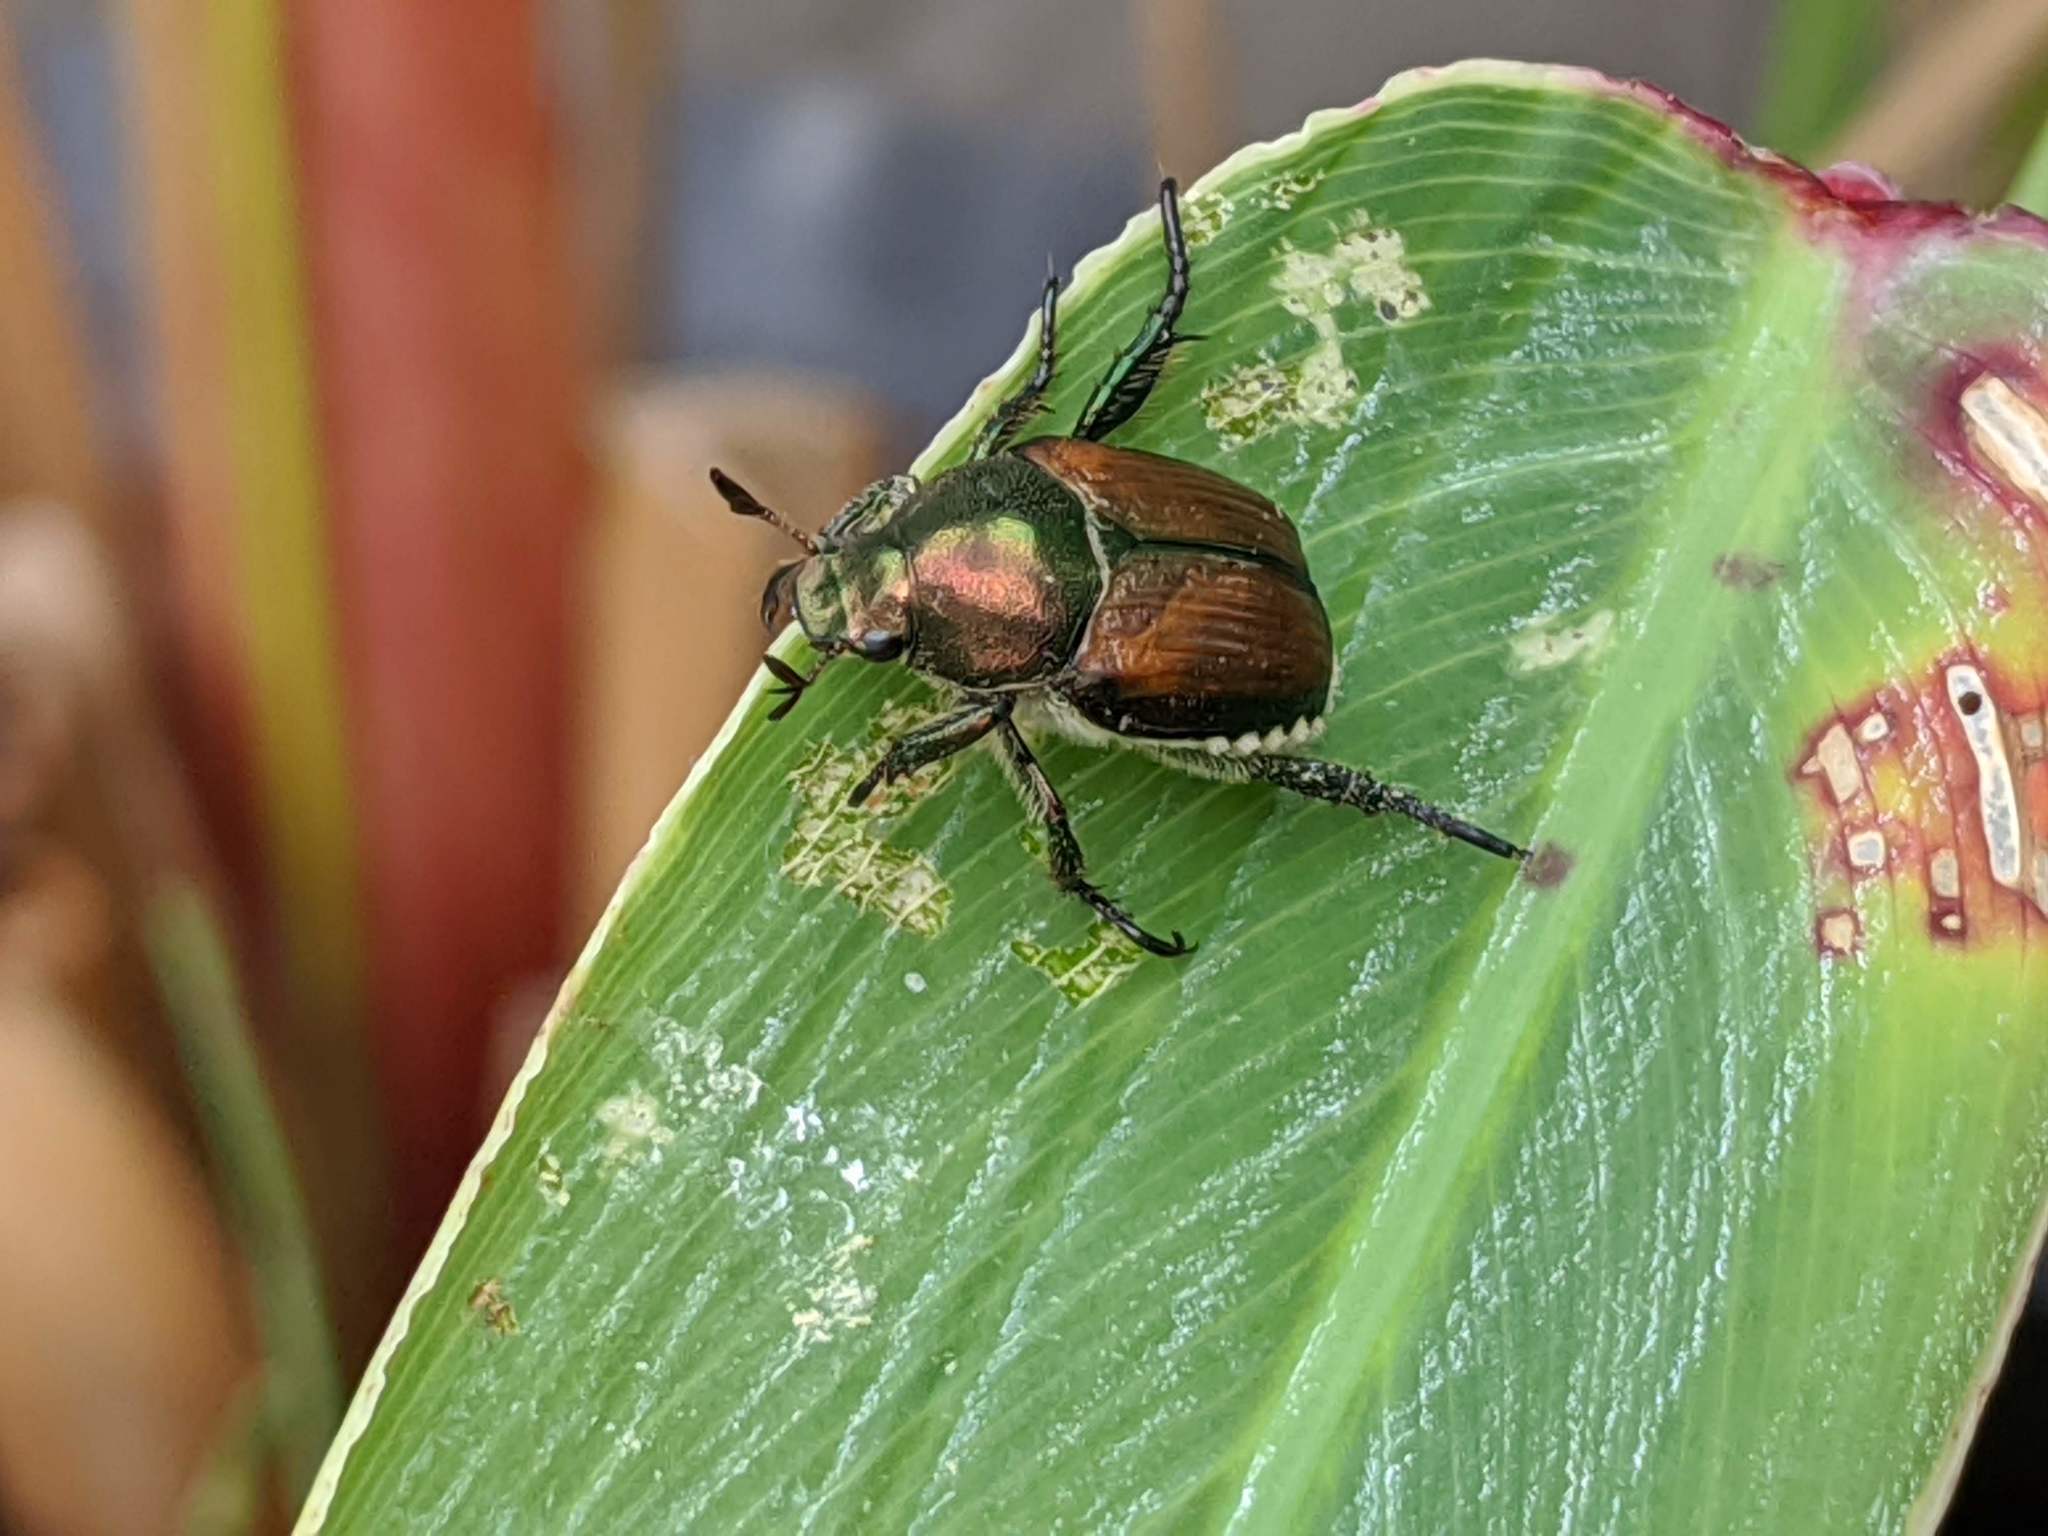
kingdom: Animalia
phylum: Arthropoda
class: Insecta
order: Coleoptera
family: Scarabaeidae
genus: Popillia
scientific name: Popillia japonica
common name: Japanese beetle
